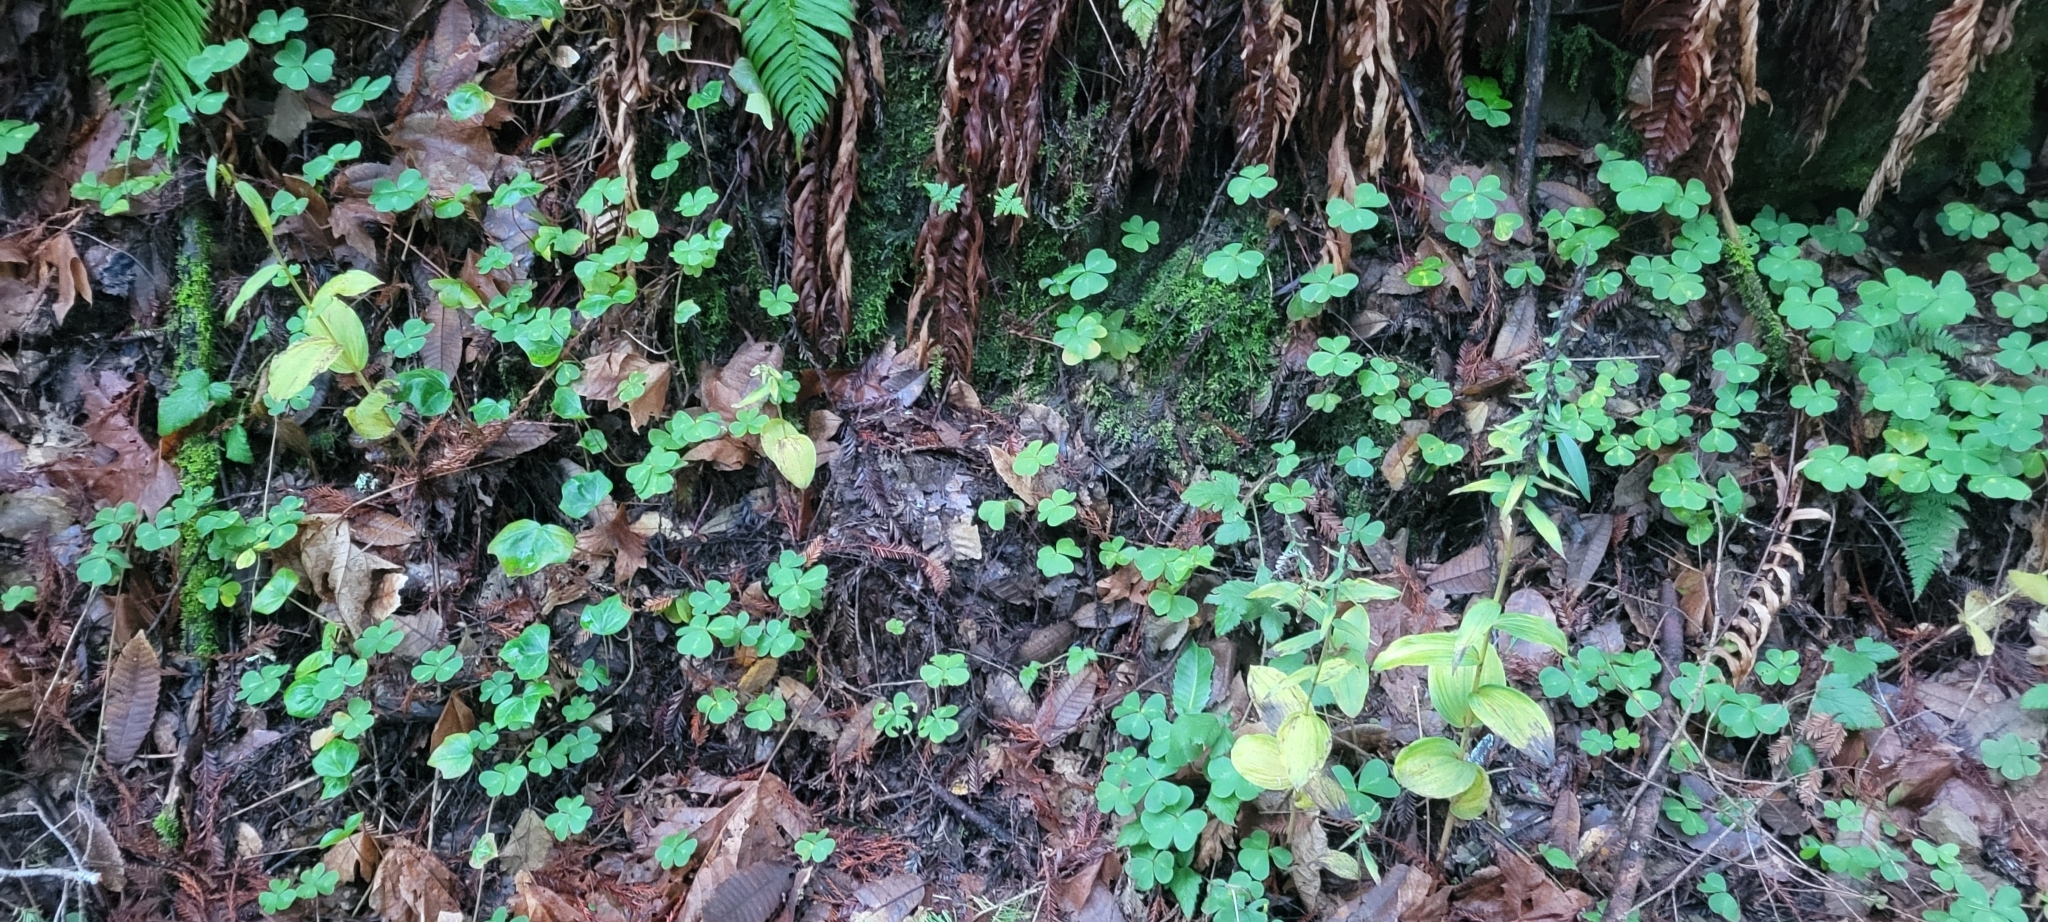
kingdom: Plantae
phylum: Tracheophyta
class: Liliopsida
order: Asparagales
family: Orchidaceae
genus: Epipactis
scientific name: Epipactis helleborine
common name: Broad-leaved helleborine
